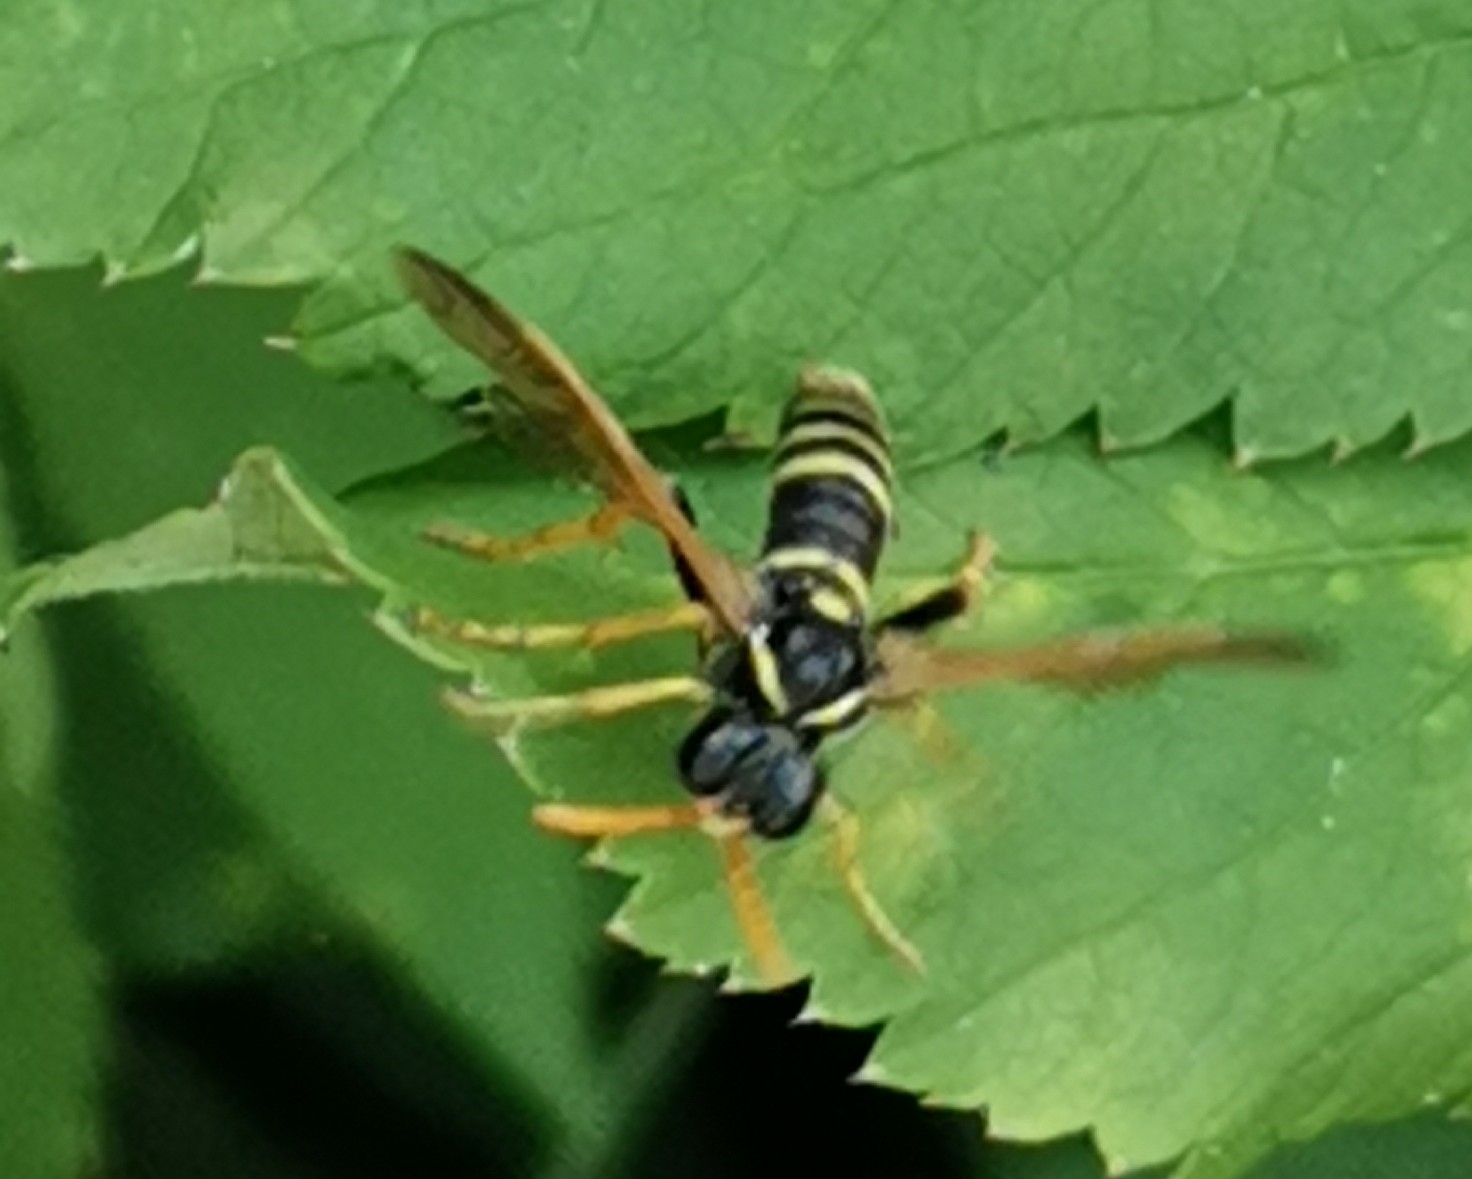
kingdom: Animalia
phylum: Arthropoda
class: Insecta
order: Hymenoptera
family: Tenthredinidae
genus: Tenthredo
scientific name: Tenthredo scrophulariae
